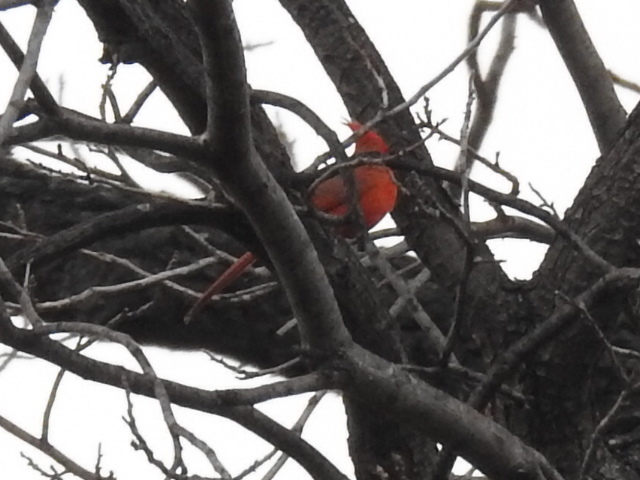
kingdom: Animalia
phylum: Chordata
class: Aves
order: Passeriformes
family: Cardinalidae
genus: Cardinalis
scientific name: Cardinalis cardinalis
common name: Northern cardinal
